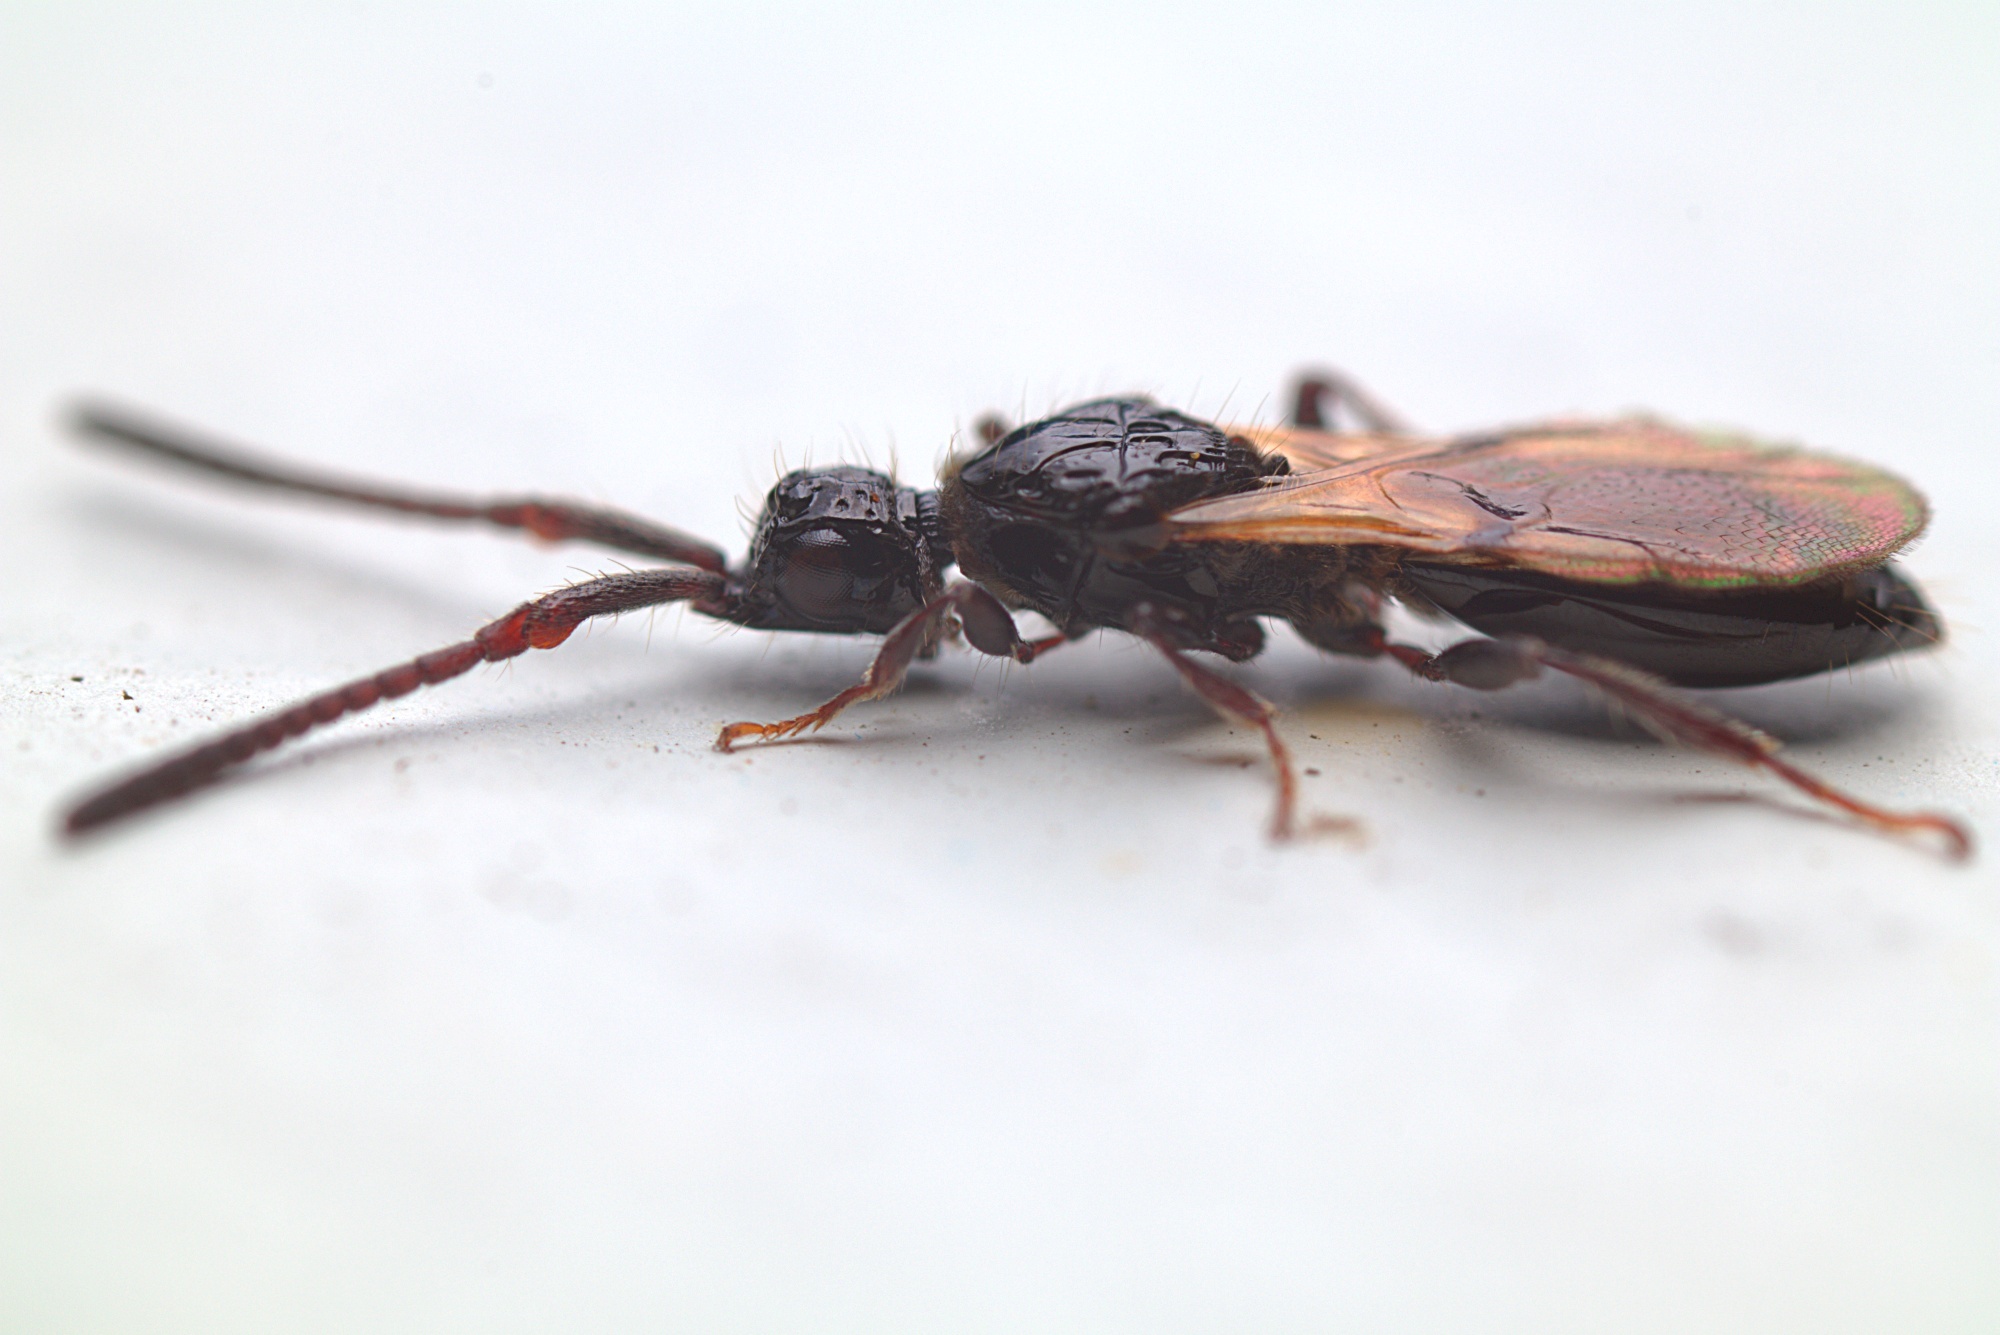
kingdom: Animalia
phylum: Arthropoda
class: Insecta
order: Hymenoptera
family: Diapriidae
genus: Neurogalesus
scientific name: Neurogalesus carinatus
